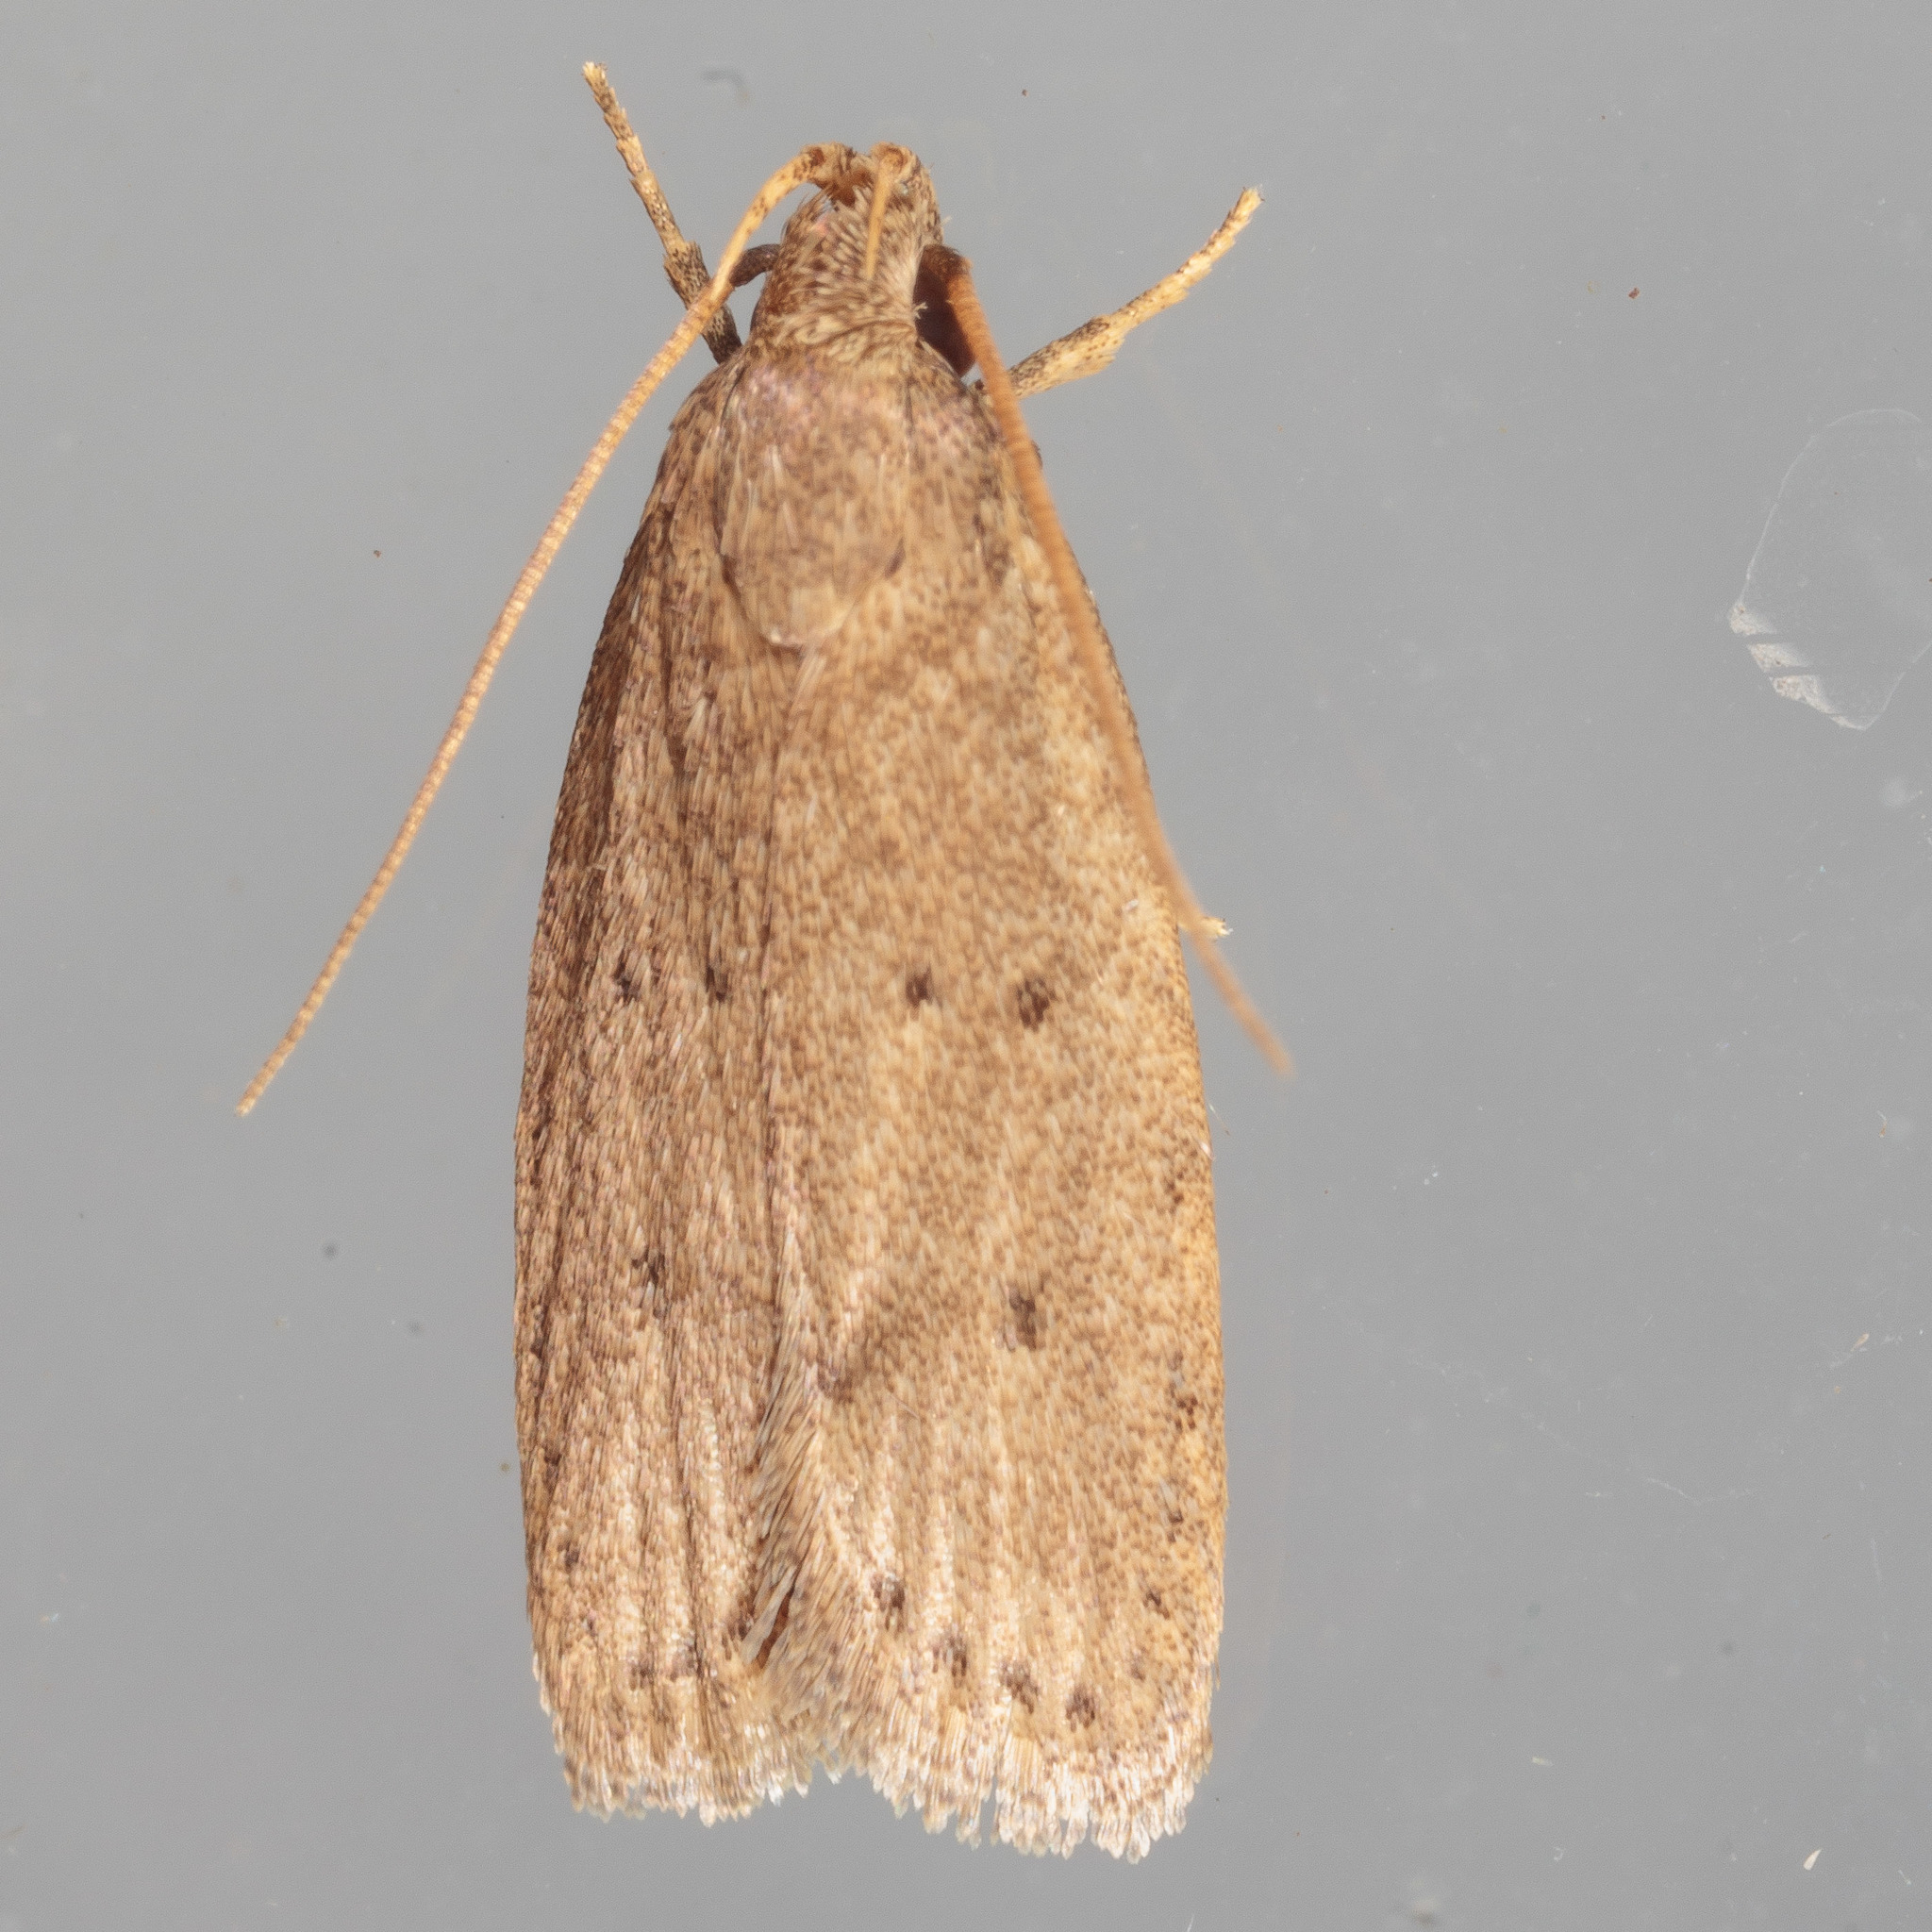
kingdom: Animalia
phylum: Arthropoda
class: Insecta
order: Lepidoptera
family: Autostichidae
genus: Autosticha
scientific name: Autosticha kyotensis
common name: Kyoto moth
